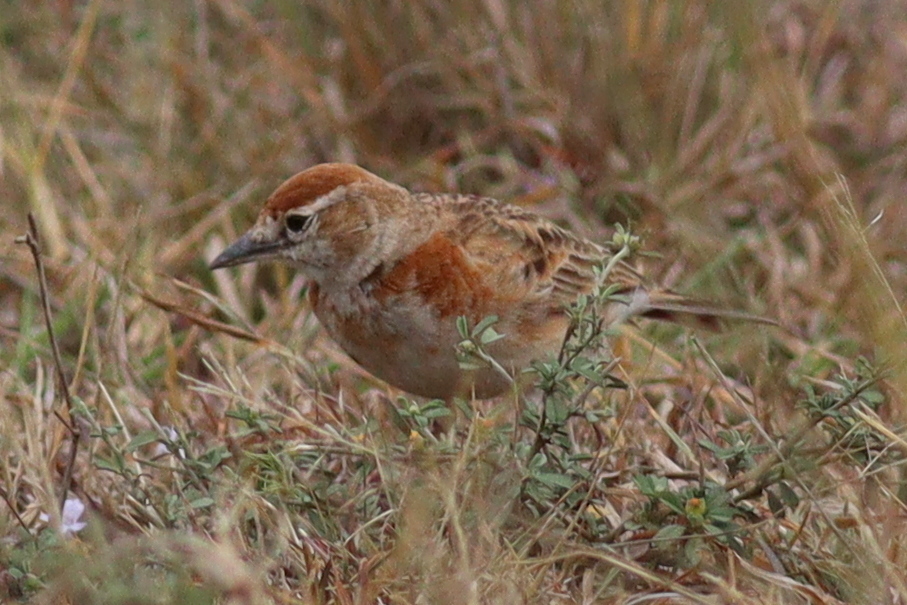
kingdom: Animalia
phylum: Chordata
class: Aves
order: Passeriformes
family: Alaudidae
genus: Calandrella
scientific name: Calandrella cinerea
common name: Red-capped lark
